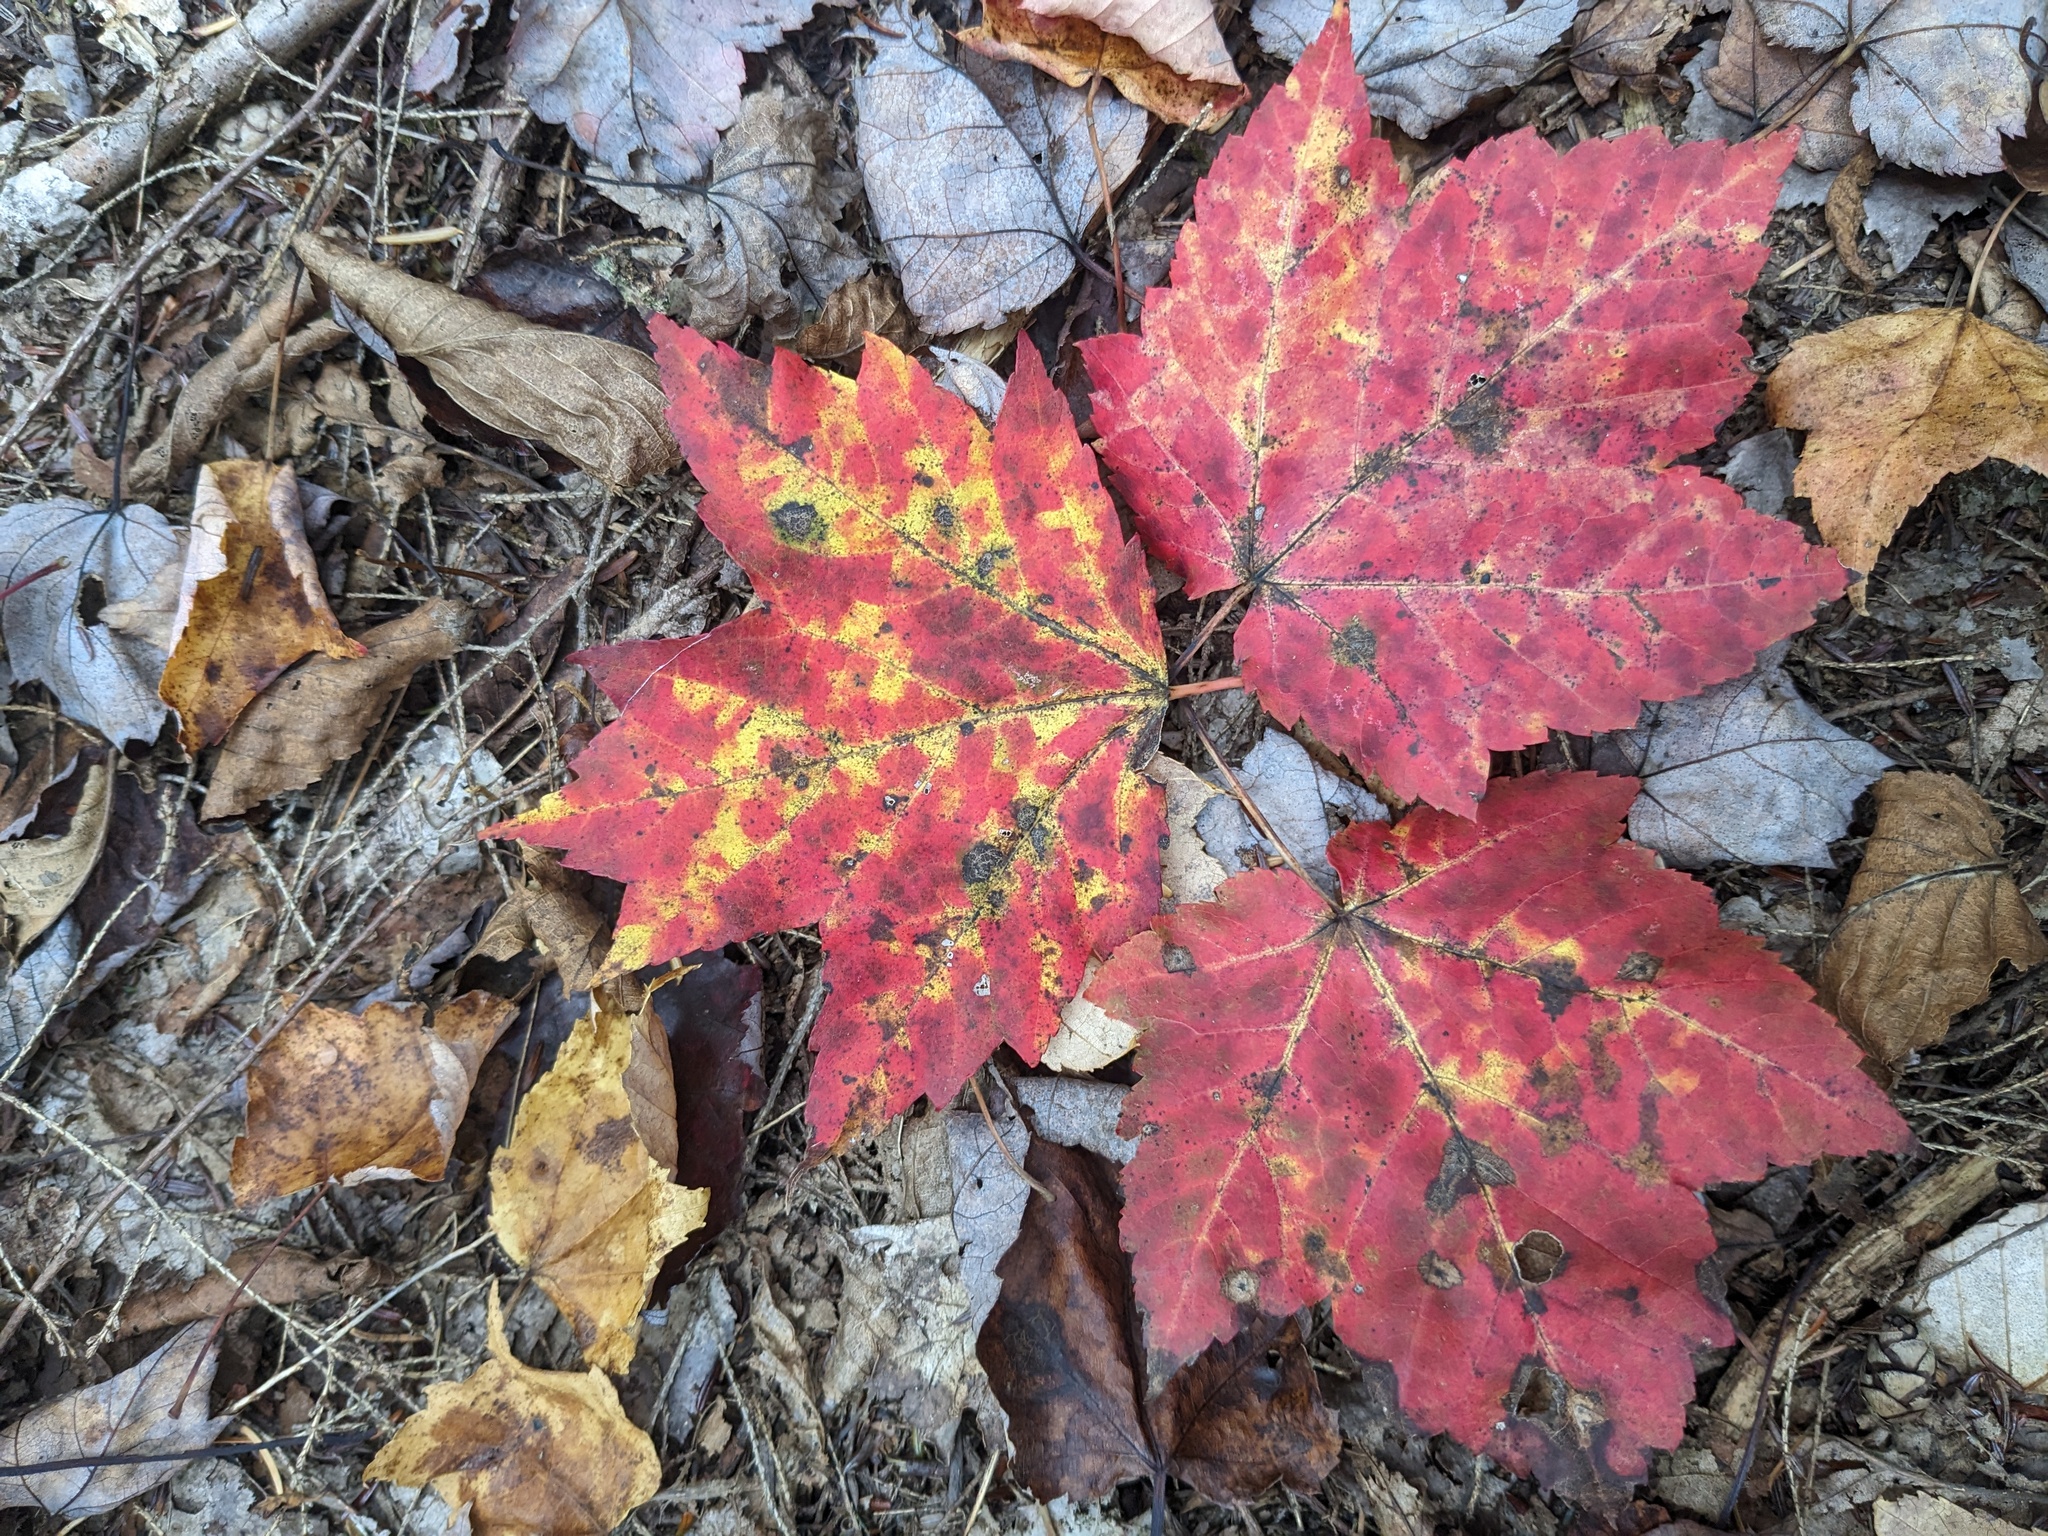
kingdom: Plantae
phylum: Tracheophyta
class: Magnoliopsida
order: Sapindales
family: Sapindaceae
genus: Acer
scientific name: Acer rubrum
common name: Red maple
